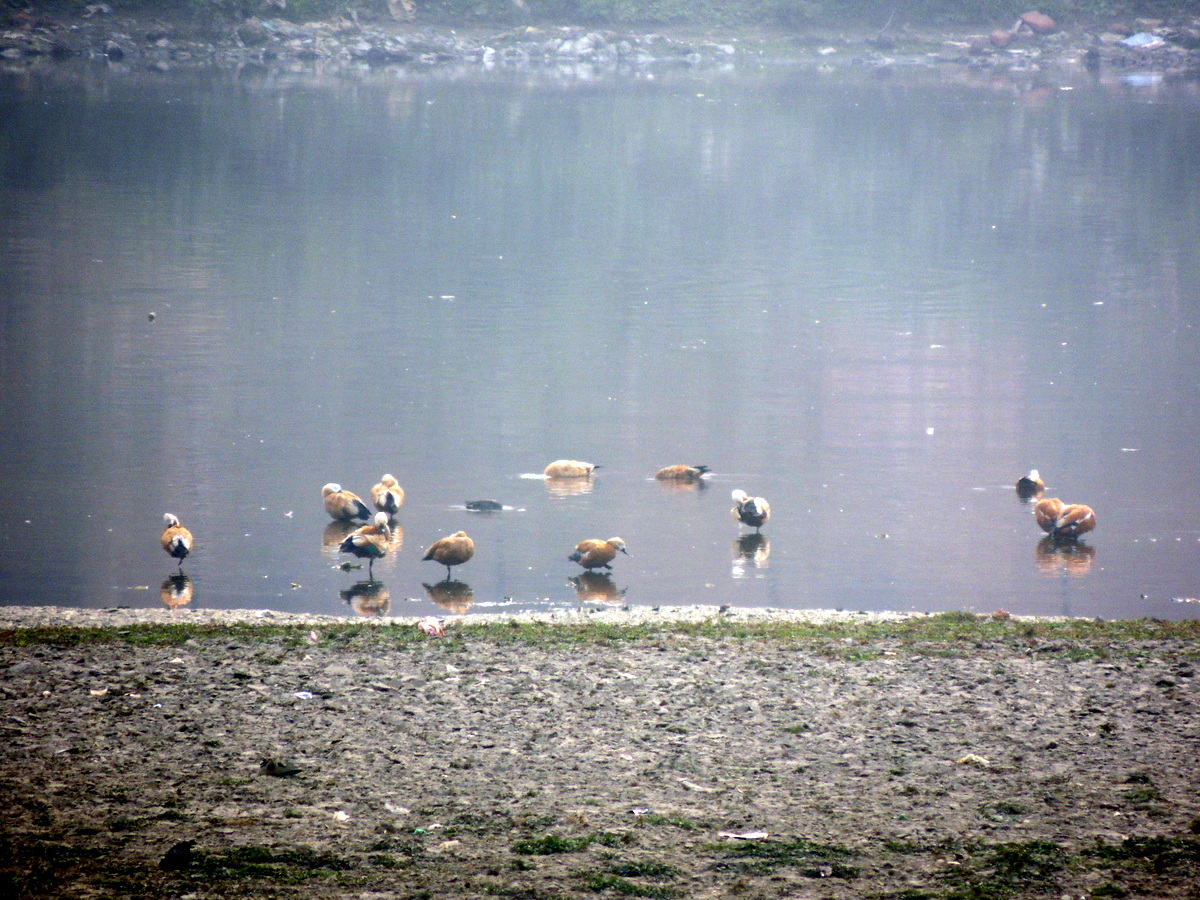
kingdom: Animalia
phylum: Chordata
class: Aves
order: Anseriformes
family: Anatidae
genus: Tadorna
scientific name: Tadorna ferruginea
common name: Ruddy shelduck
